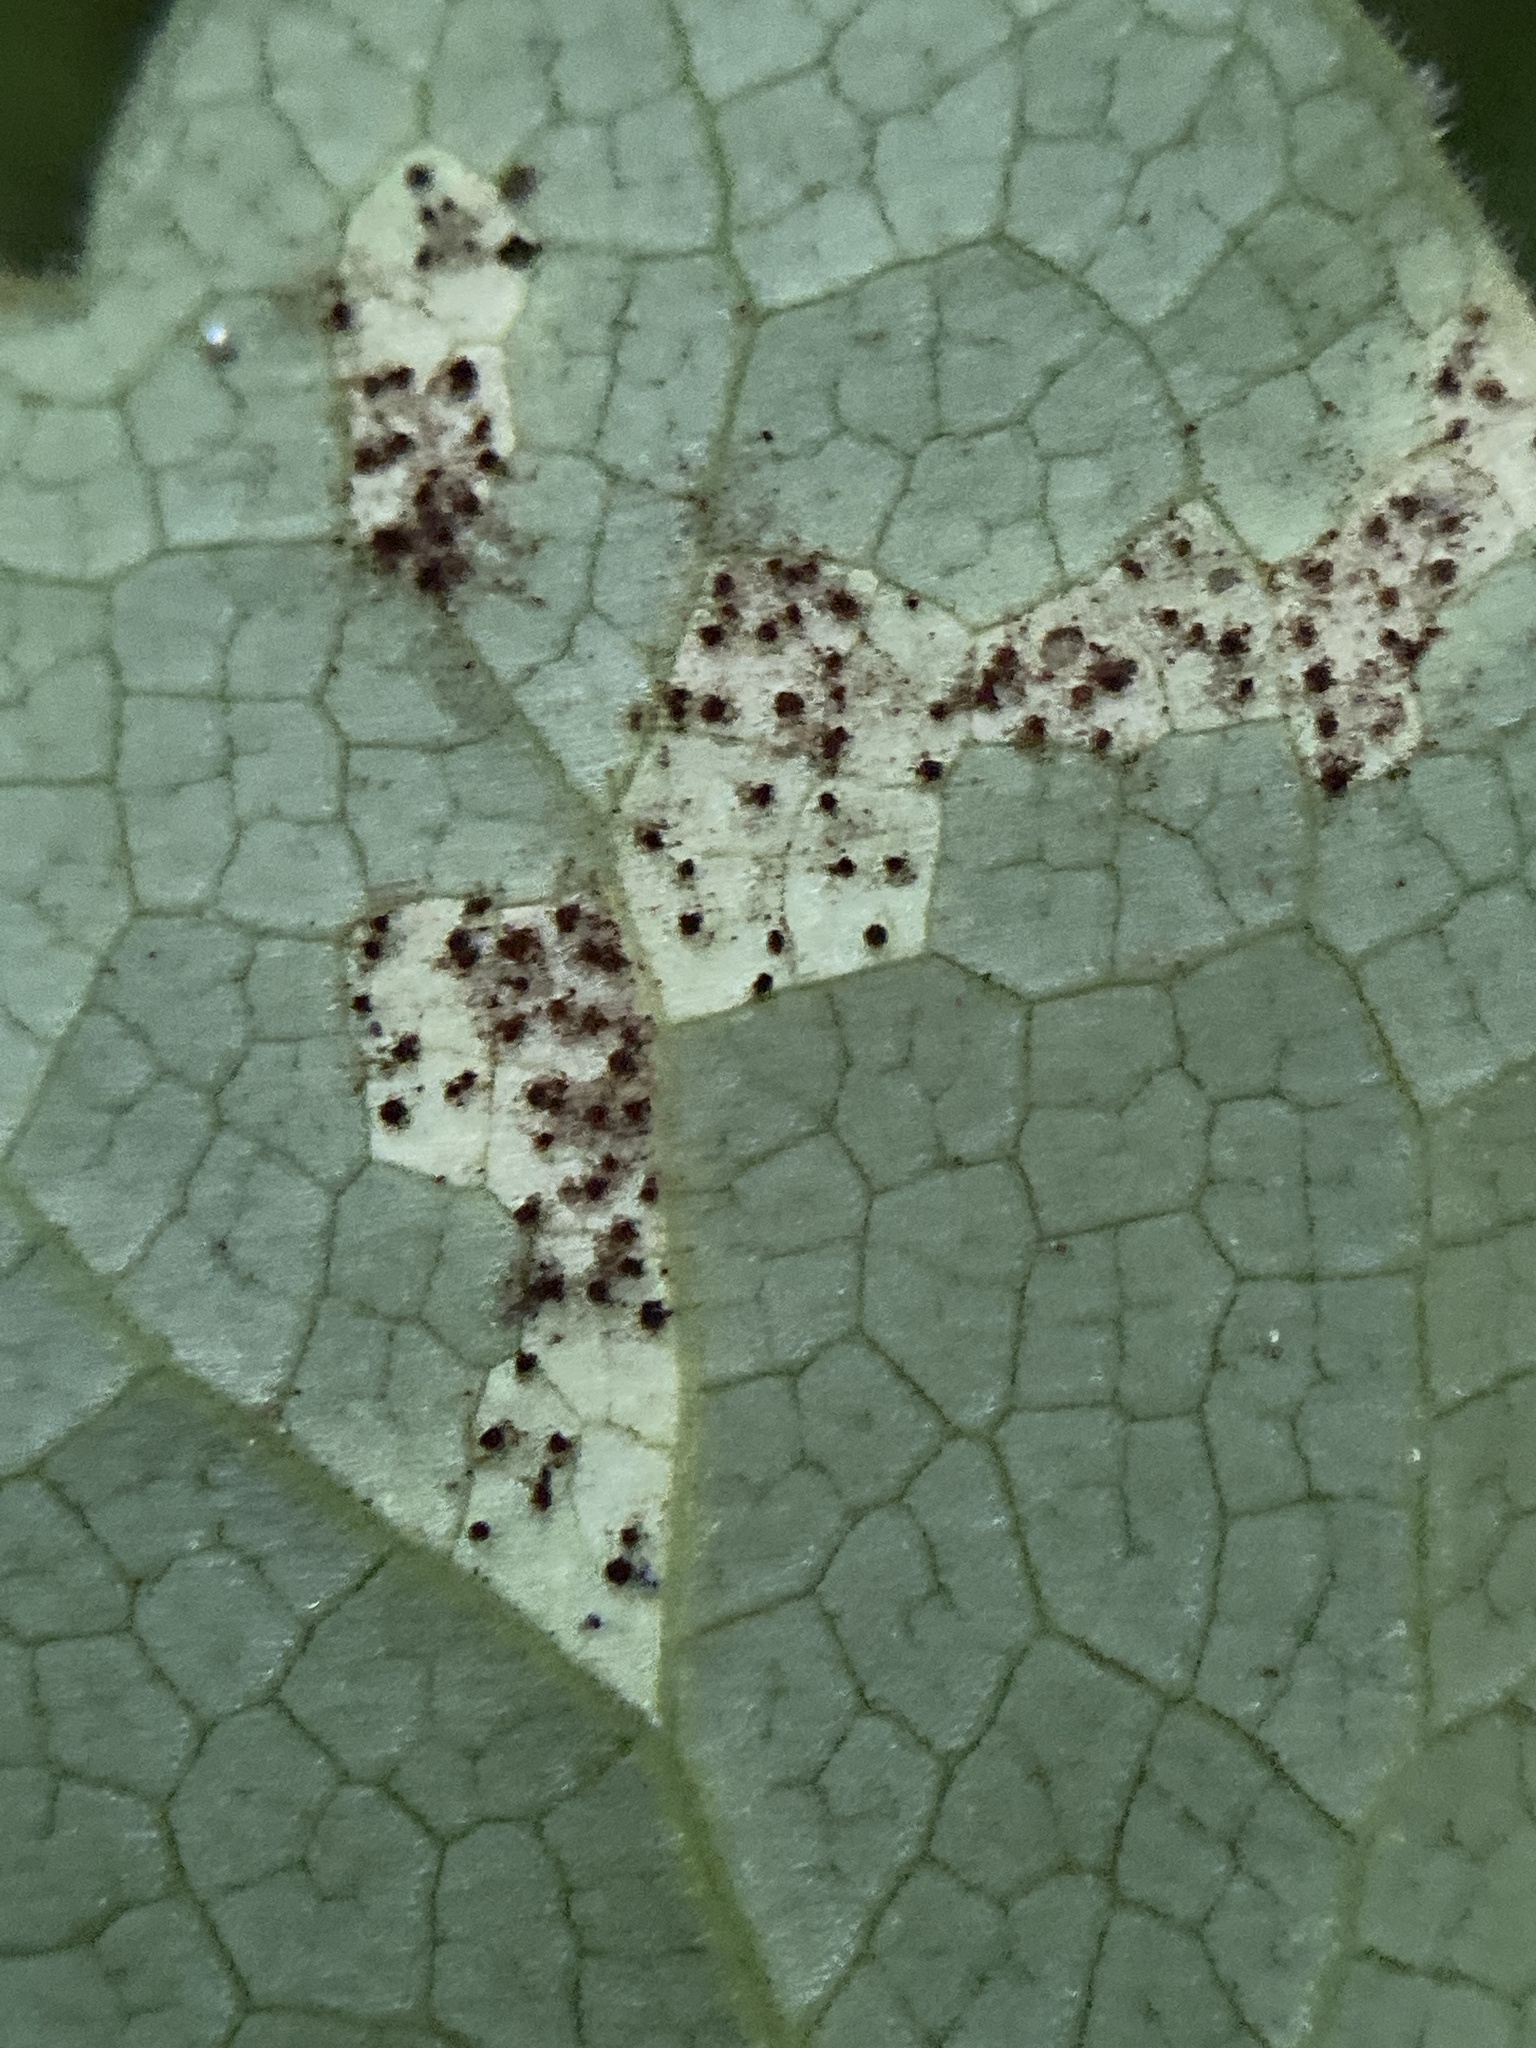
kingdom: Fungi
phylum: Basidiomycota
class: Pucciniomycetes
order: Pucciniales
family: Pucciniaceae
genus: Puccinia
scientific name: Puccinia podophylli
